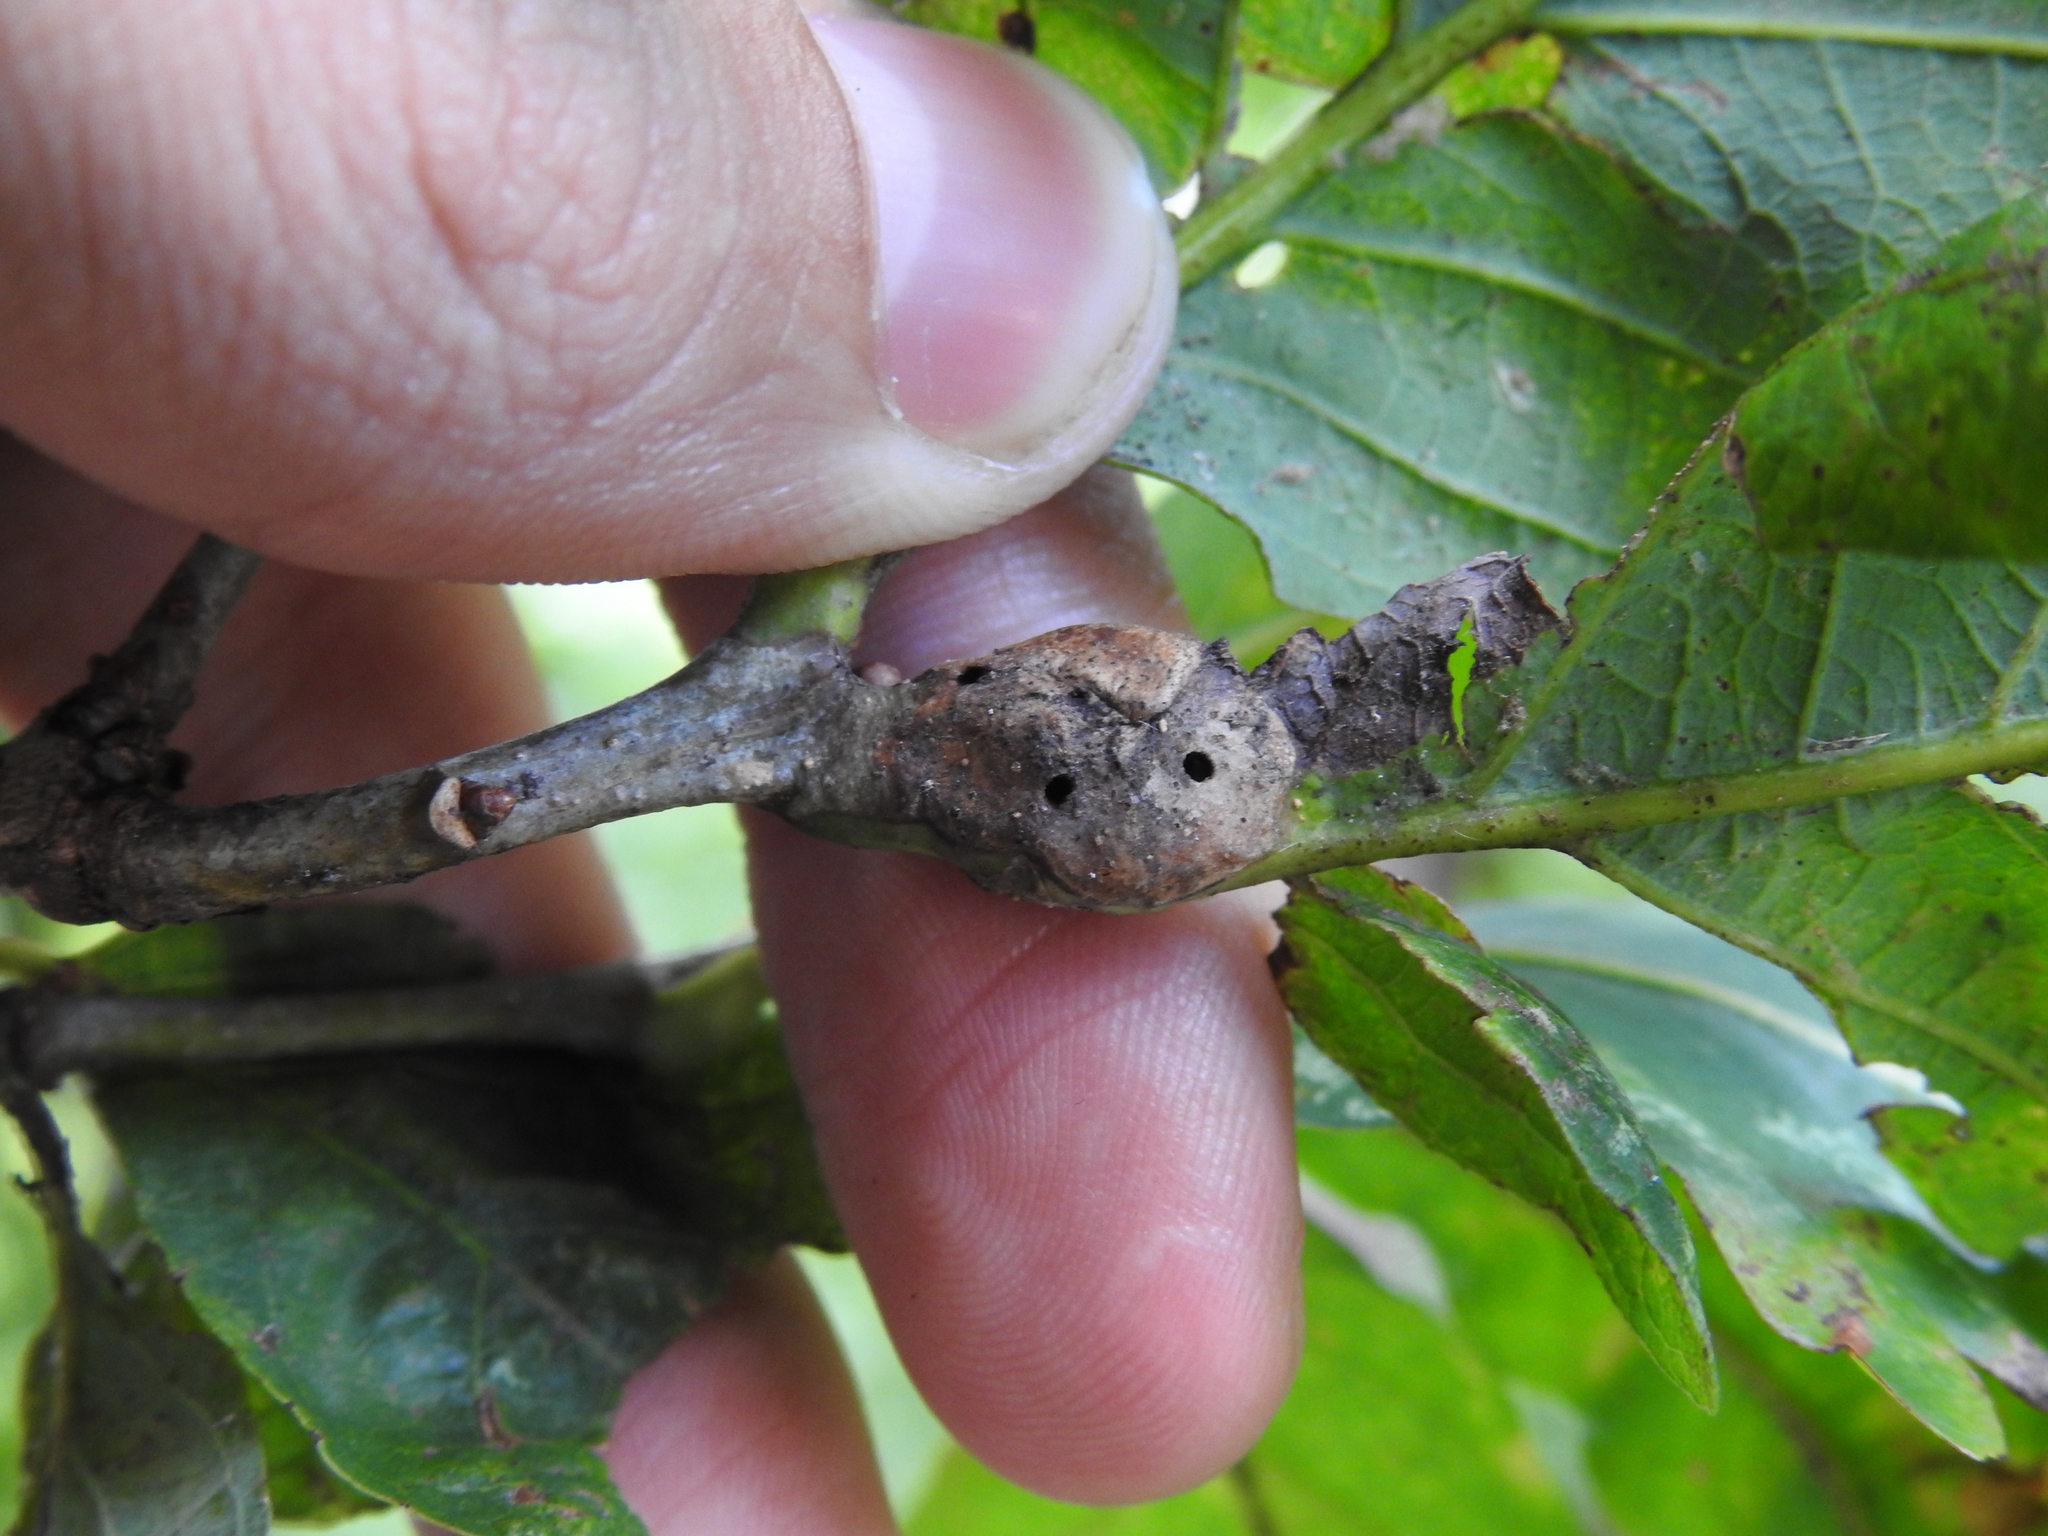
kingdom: Animalia
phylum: Arthropoda
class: Insecta
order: Hymenoptera
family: Cynipidae
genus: Neuroterus
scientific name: Neuroterus quercusbaccarum
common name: Common spangle gall
